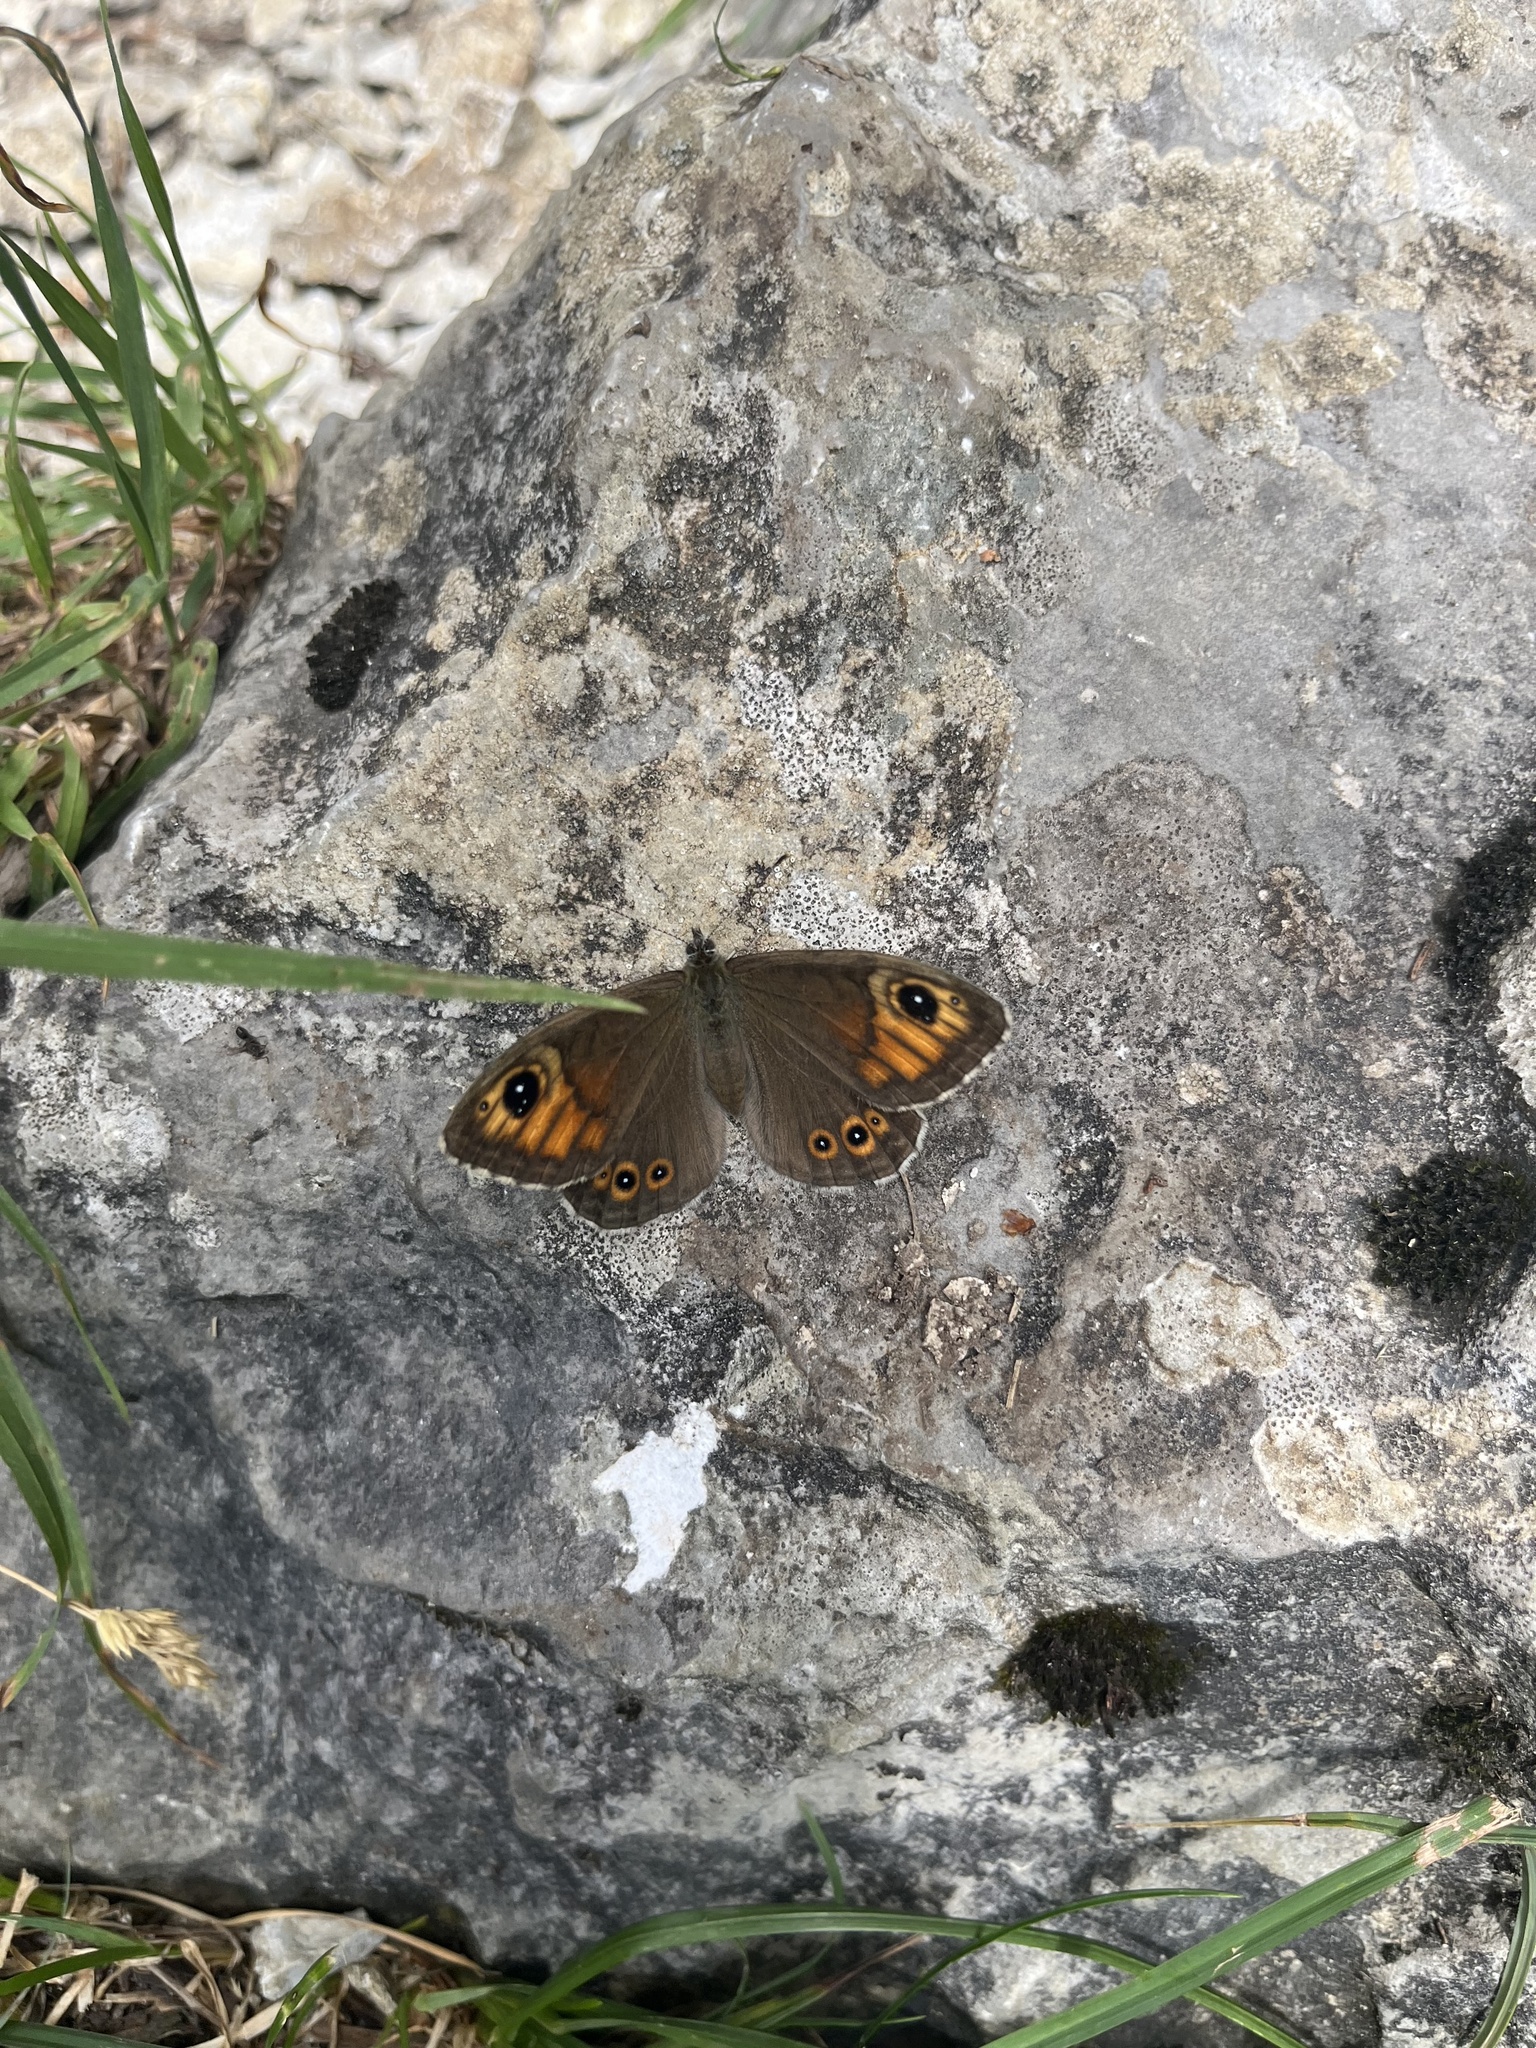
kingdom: Animalia
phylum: Arthropoda
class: Insecta
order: Lepidoptera
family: Nymphalidae
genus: Pararge
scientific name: Pararge Lasiommata maera
